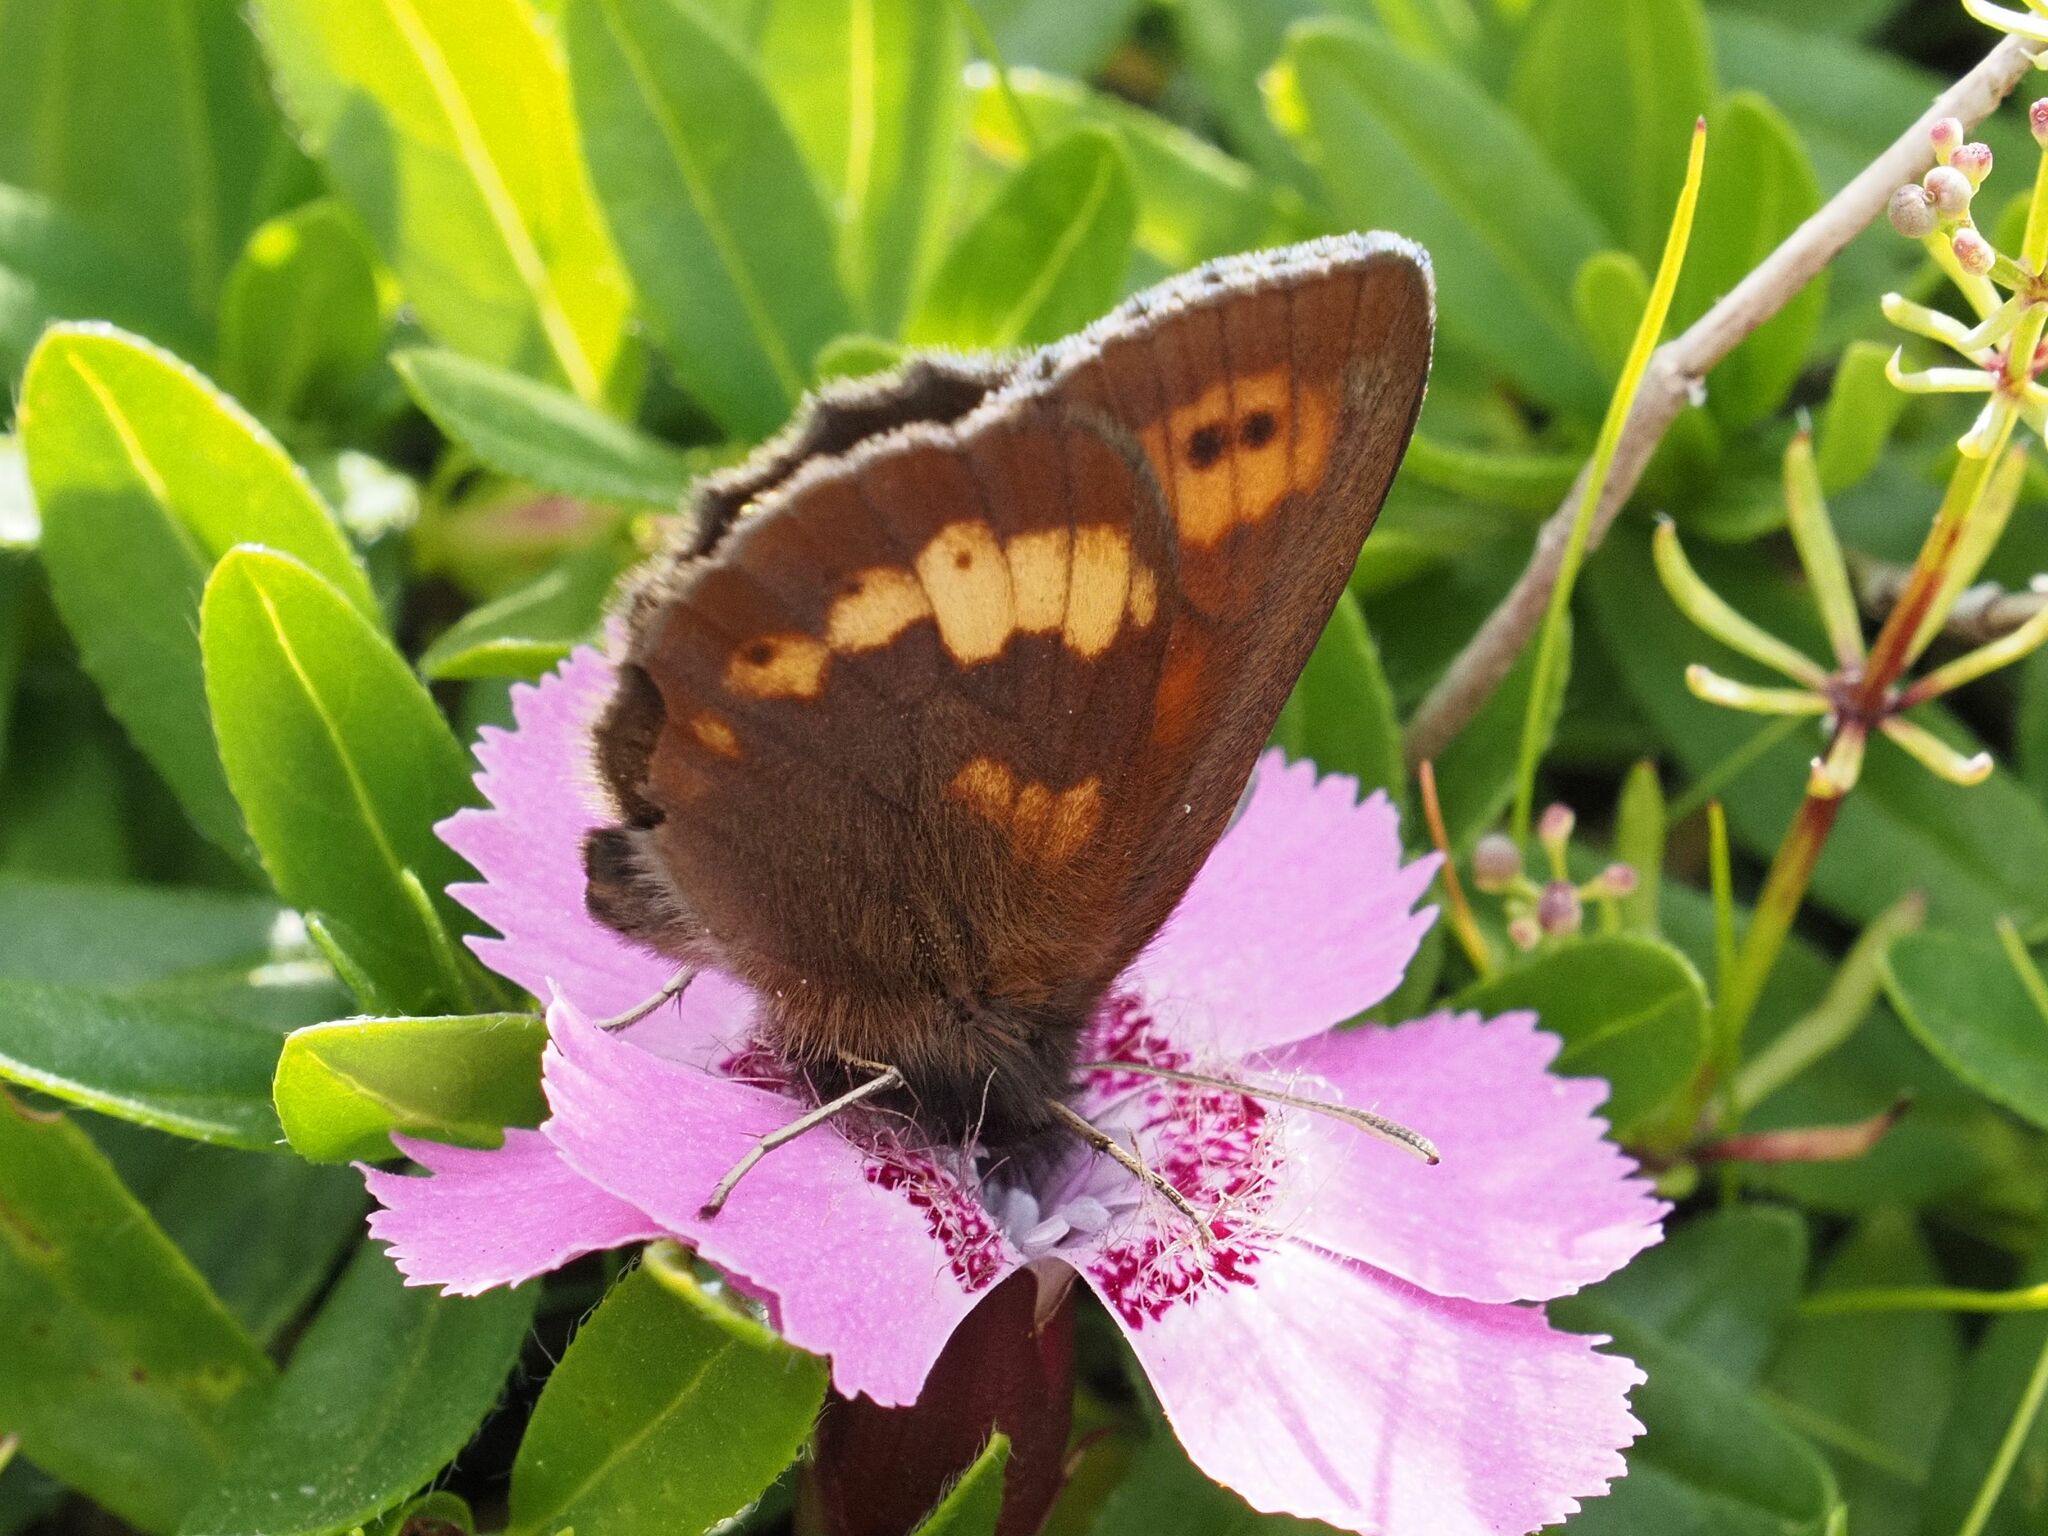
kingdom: Animalia
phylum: Arthropoda
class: Insecta
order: Lepidoptera
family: Nymphalidae
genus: Erebia
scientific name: Erebia manto
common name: Yellow-spotted ringlet
